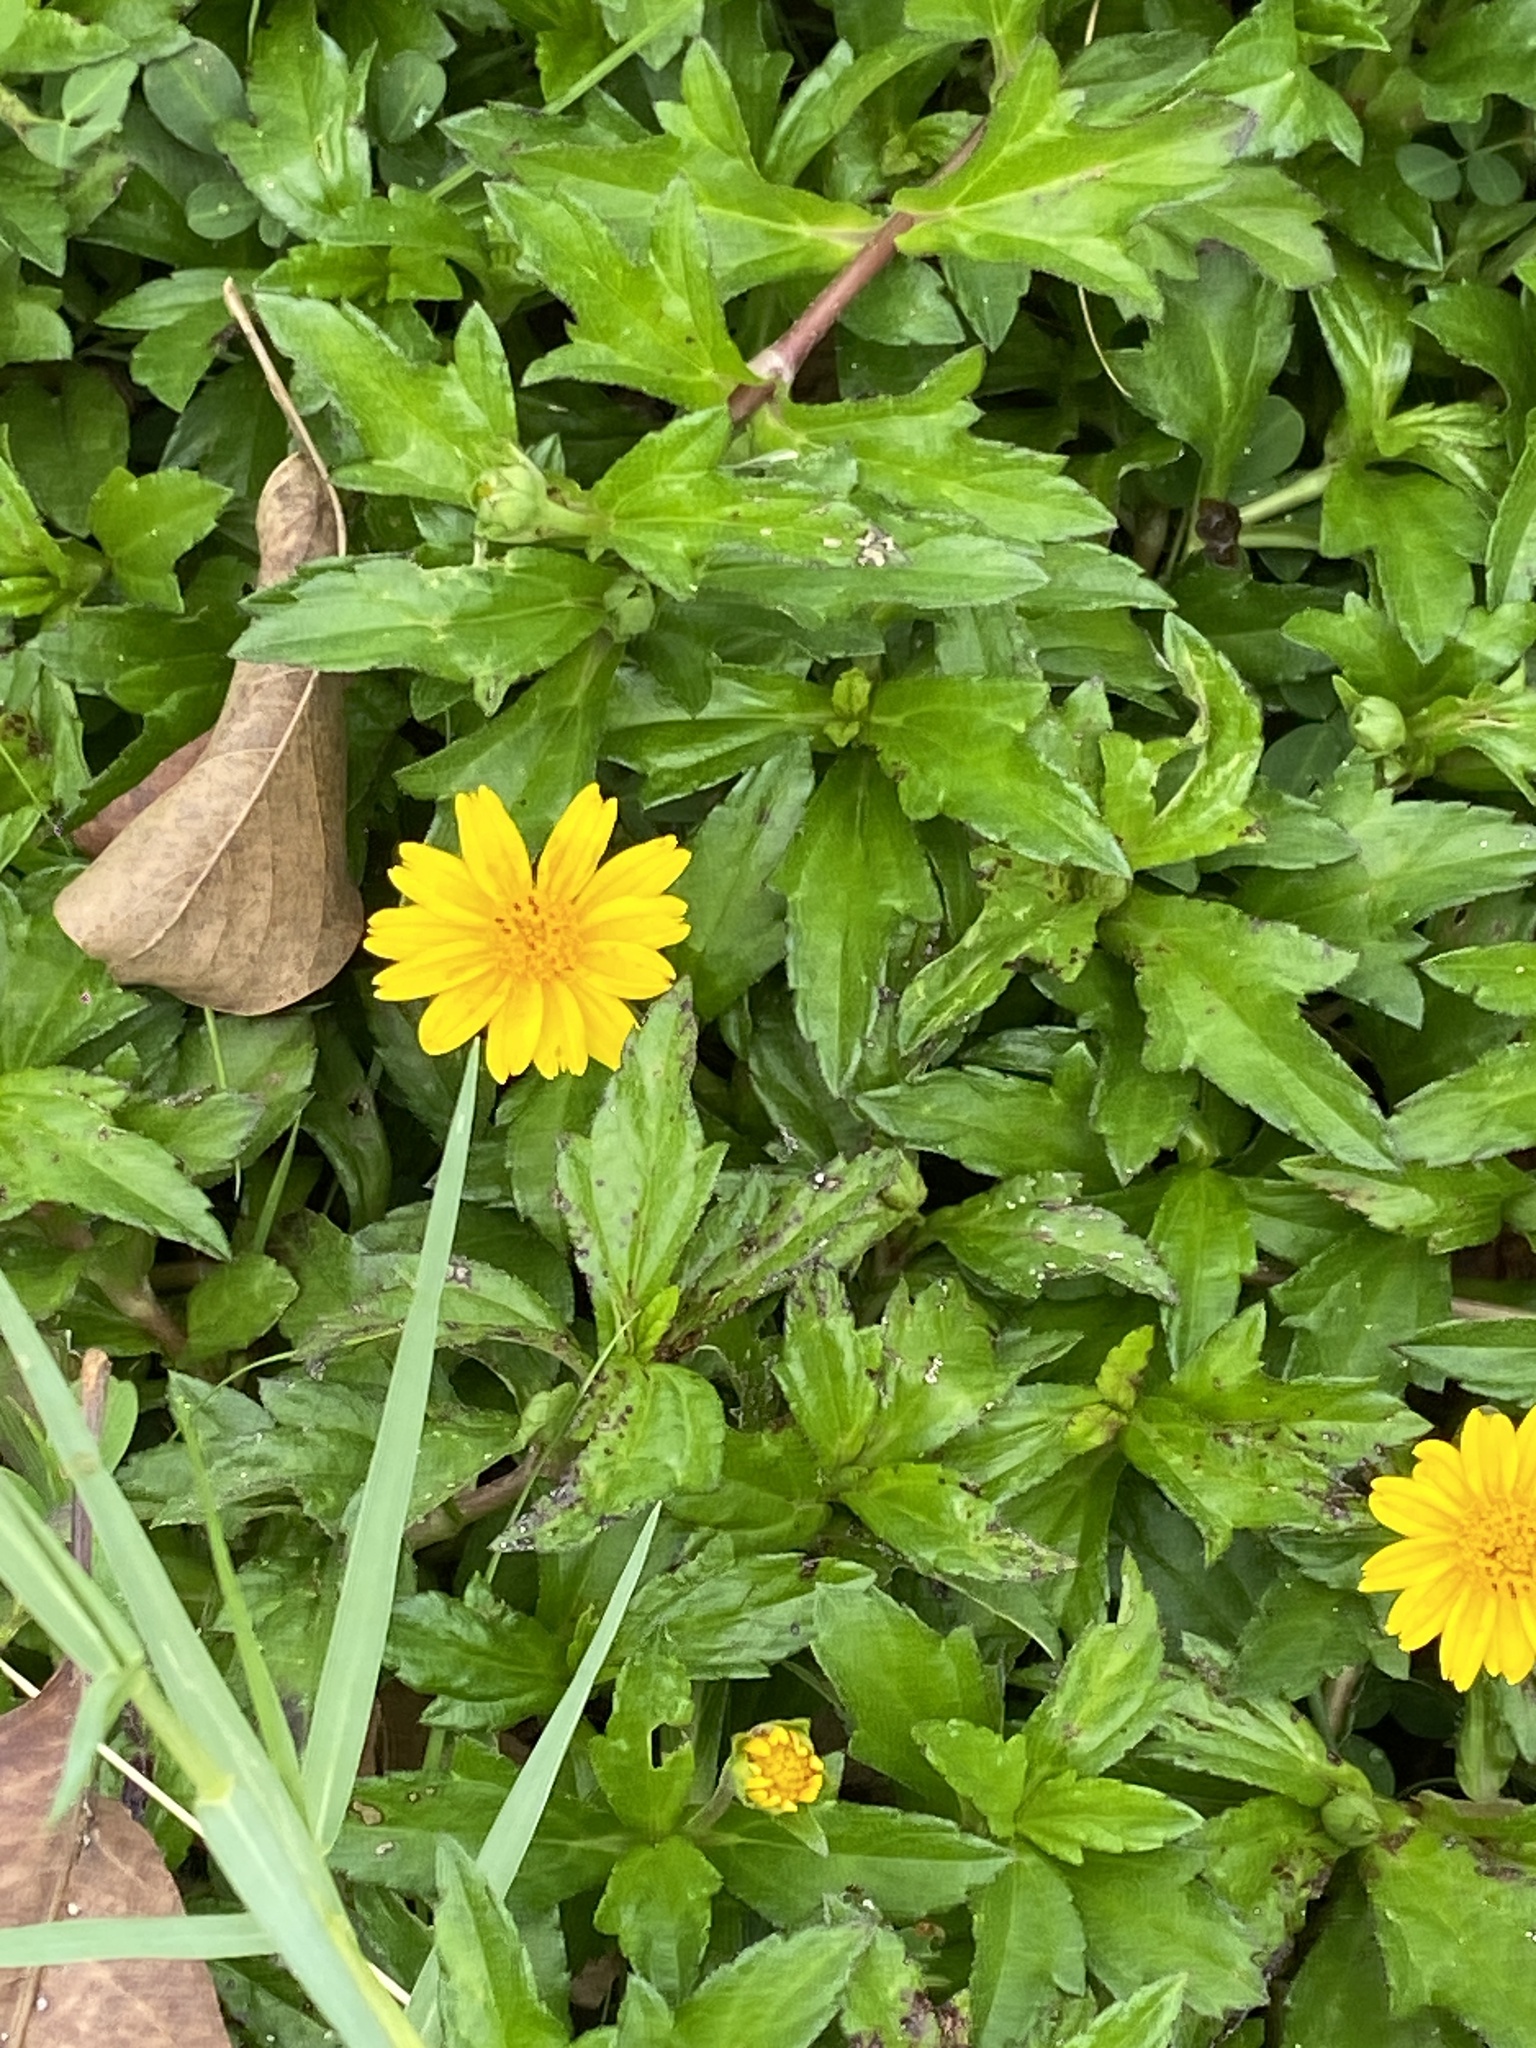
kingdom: Plantae
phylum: Tracheophyta
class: Magnoliopsida
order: Asterales
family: Asteraceae
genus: Sphagneticola
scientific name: Sphagneticola trilobata
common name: Bay biscayne creeping-oxeye
